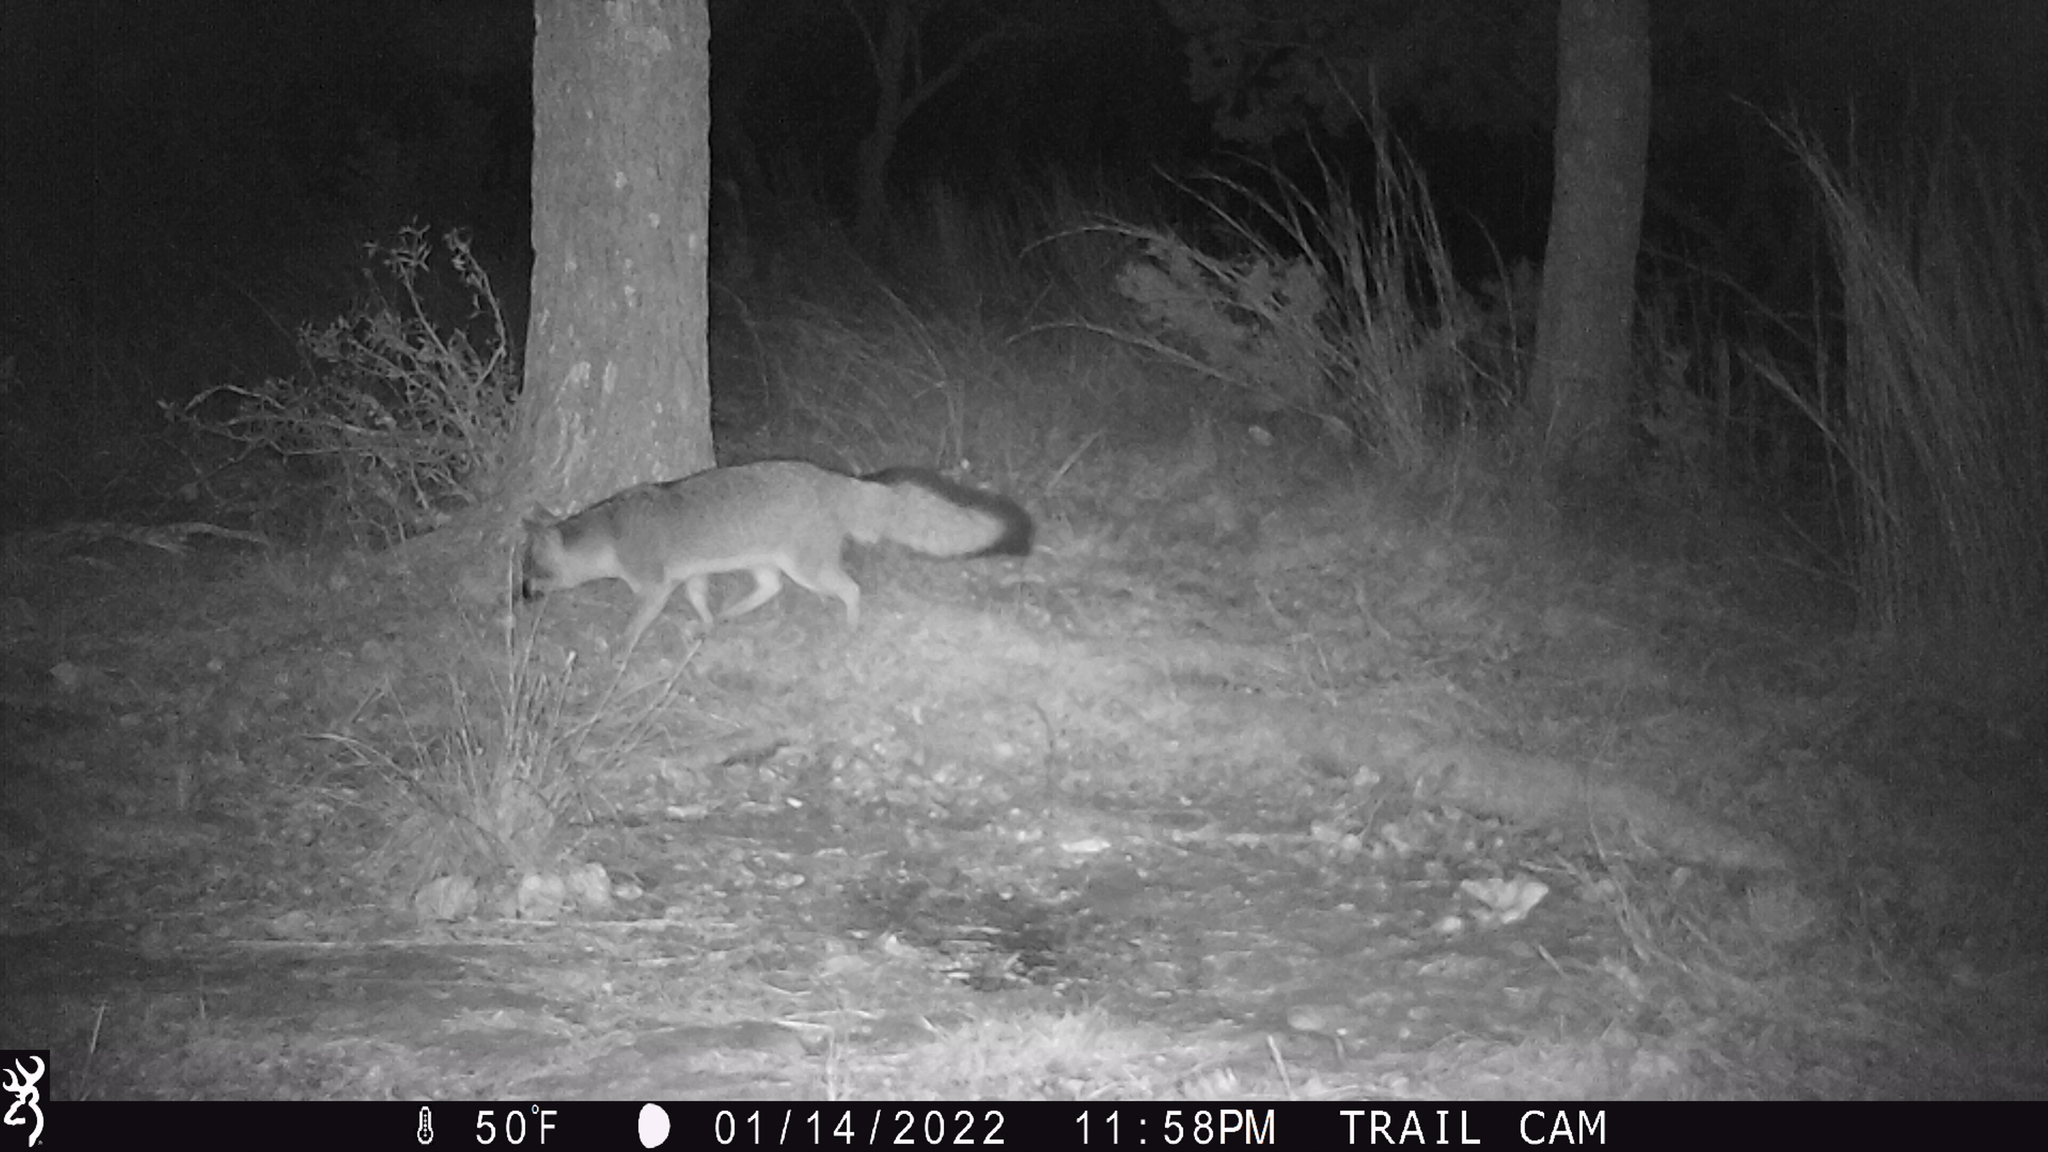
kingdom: Animalia
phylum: Chordata
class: Mammalia
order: Carnivora
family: Canidae
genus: Urocyon
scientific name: Urocyon cinereoargenteus
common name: Gray fox
